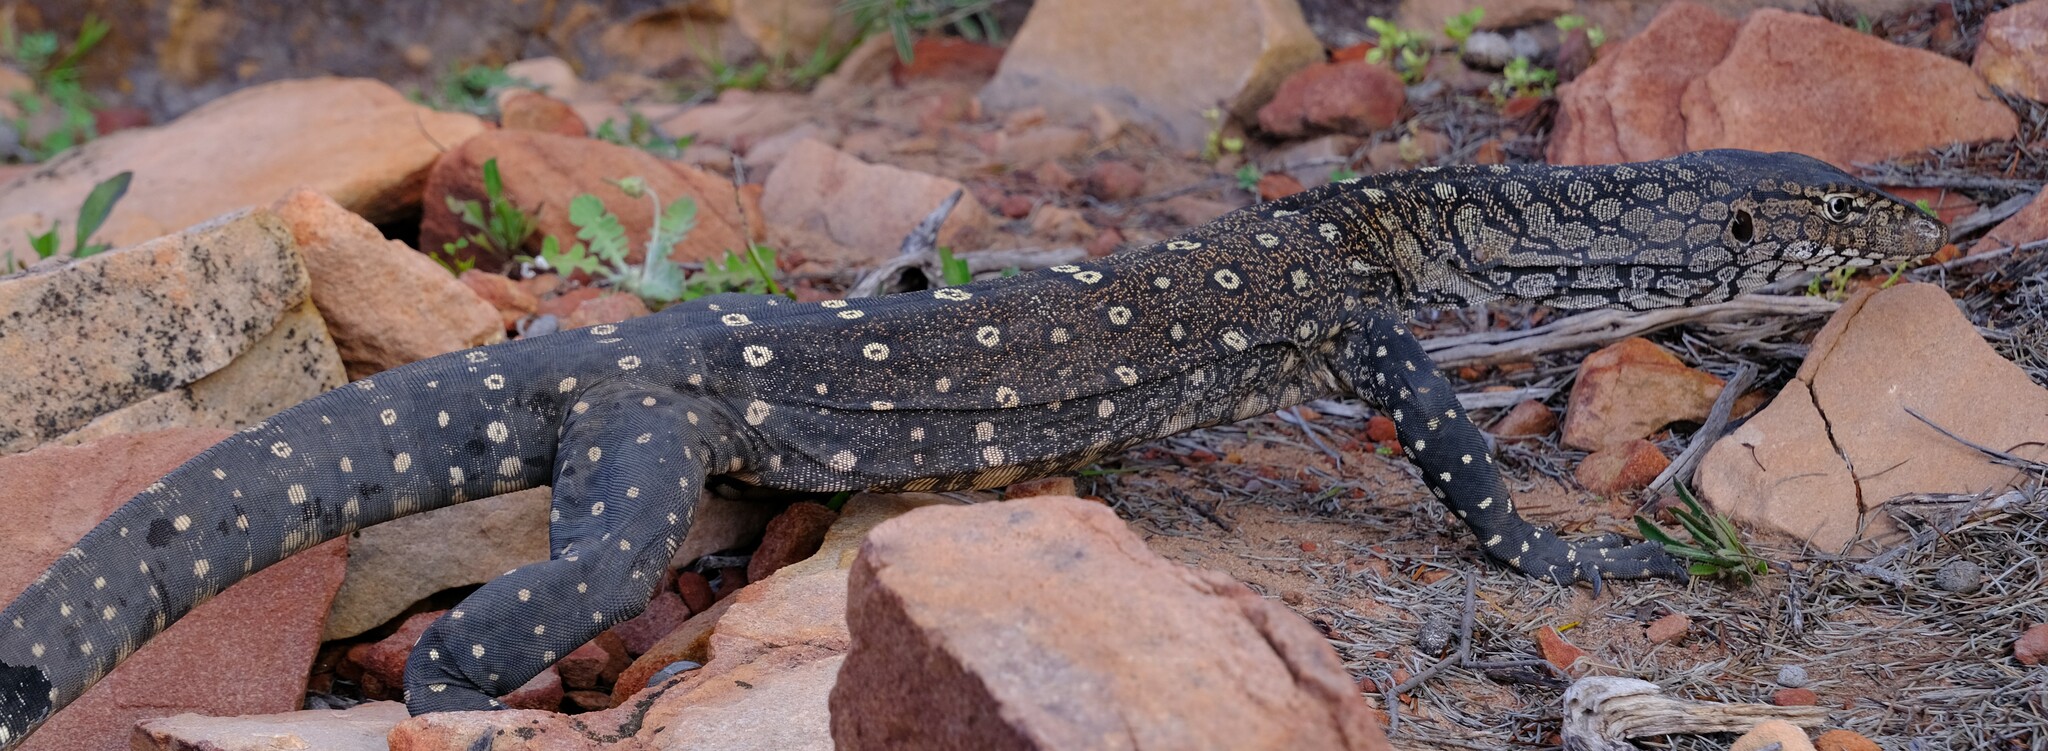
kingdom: Animalia
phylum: Chordata
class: Squamata
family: Varanidae
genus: Varanus
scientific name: Varanus giganteus
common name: Perentie
